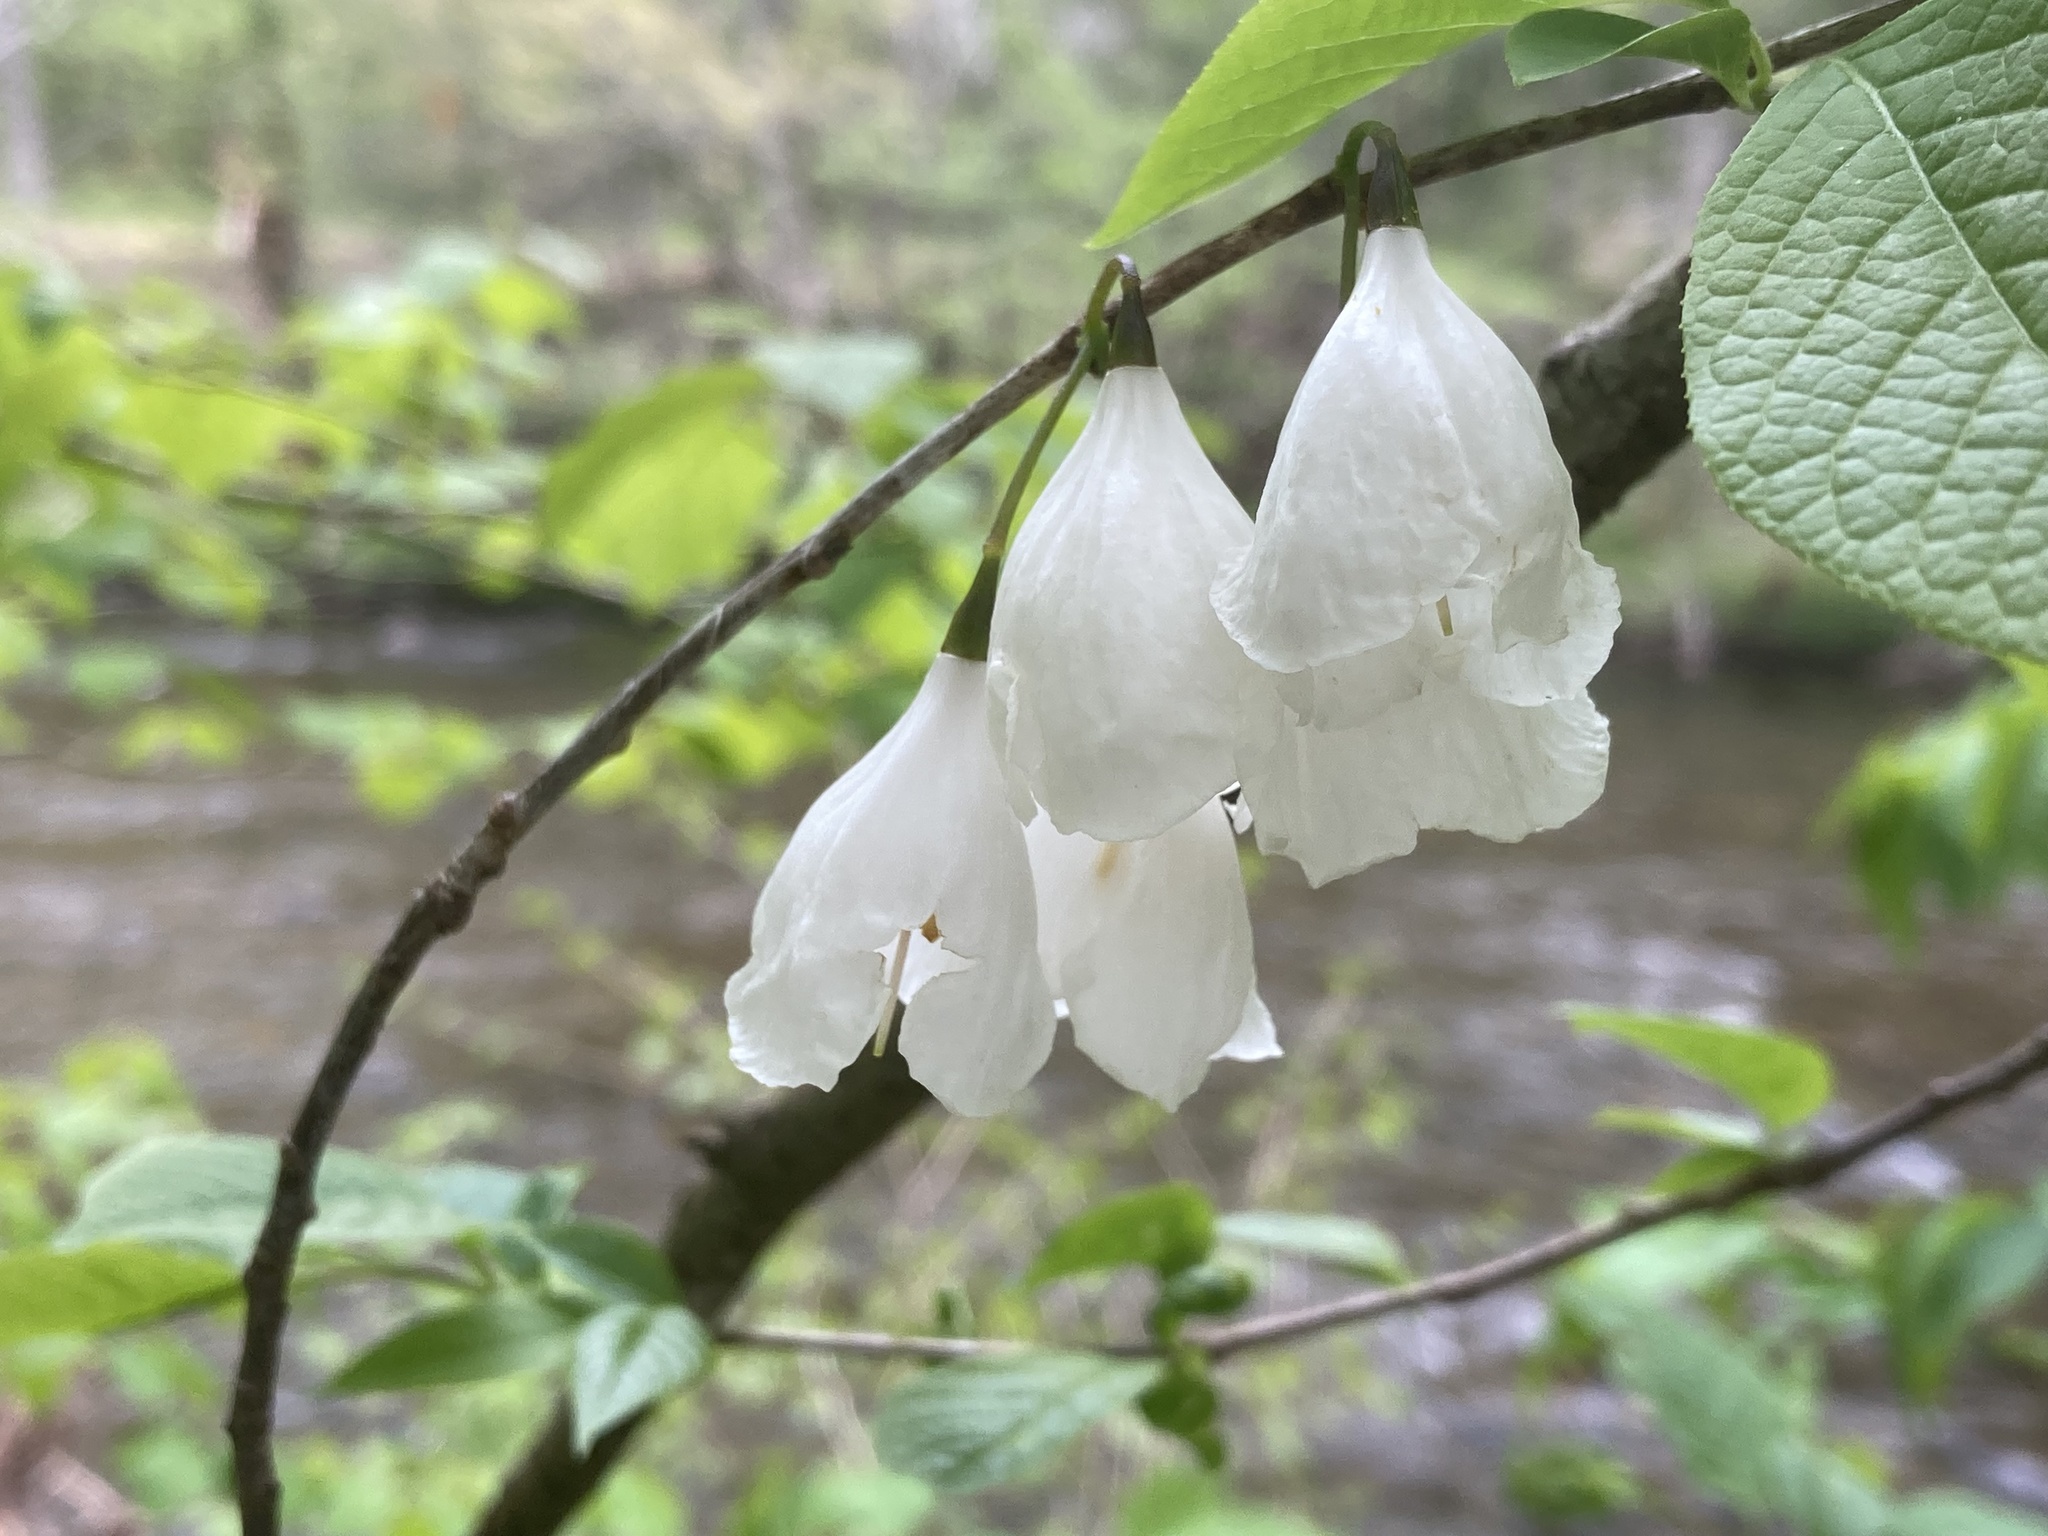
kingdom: Plantae
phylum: Tracheophyta
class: Magnoliopsida
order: Ericales
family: Styracaceae
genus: Halesia
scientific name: Halesia tetraptera
